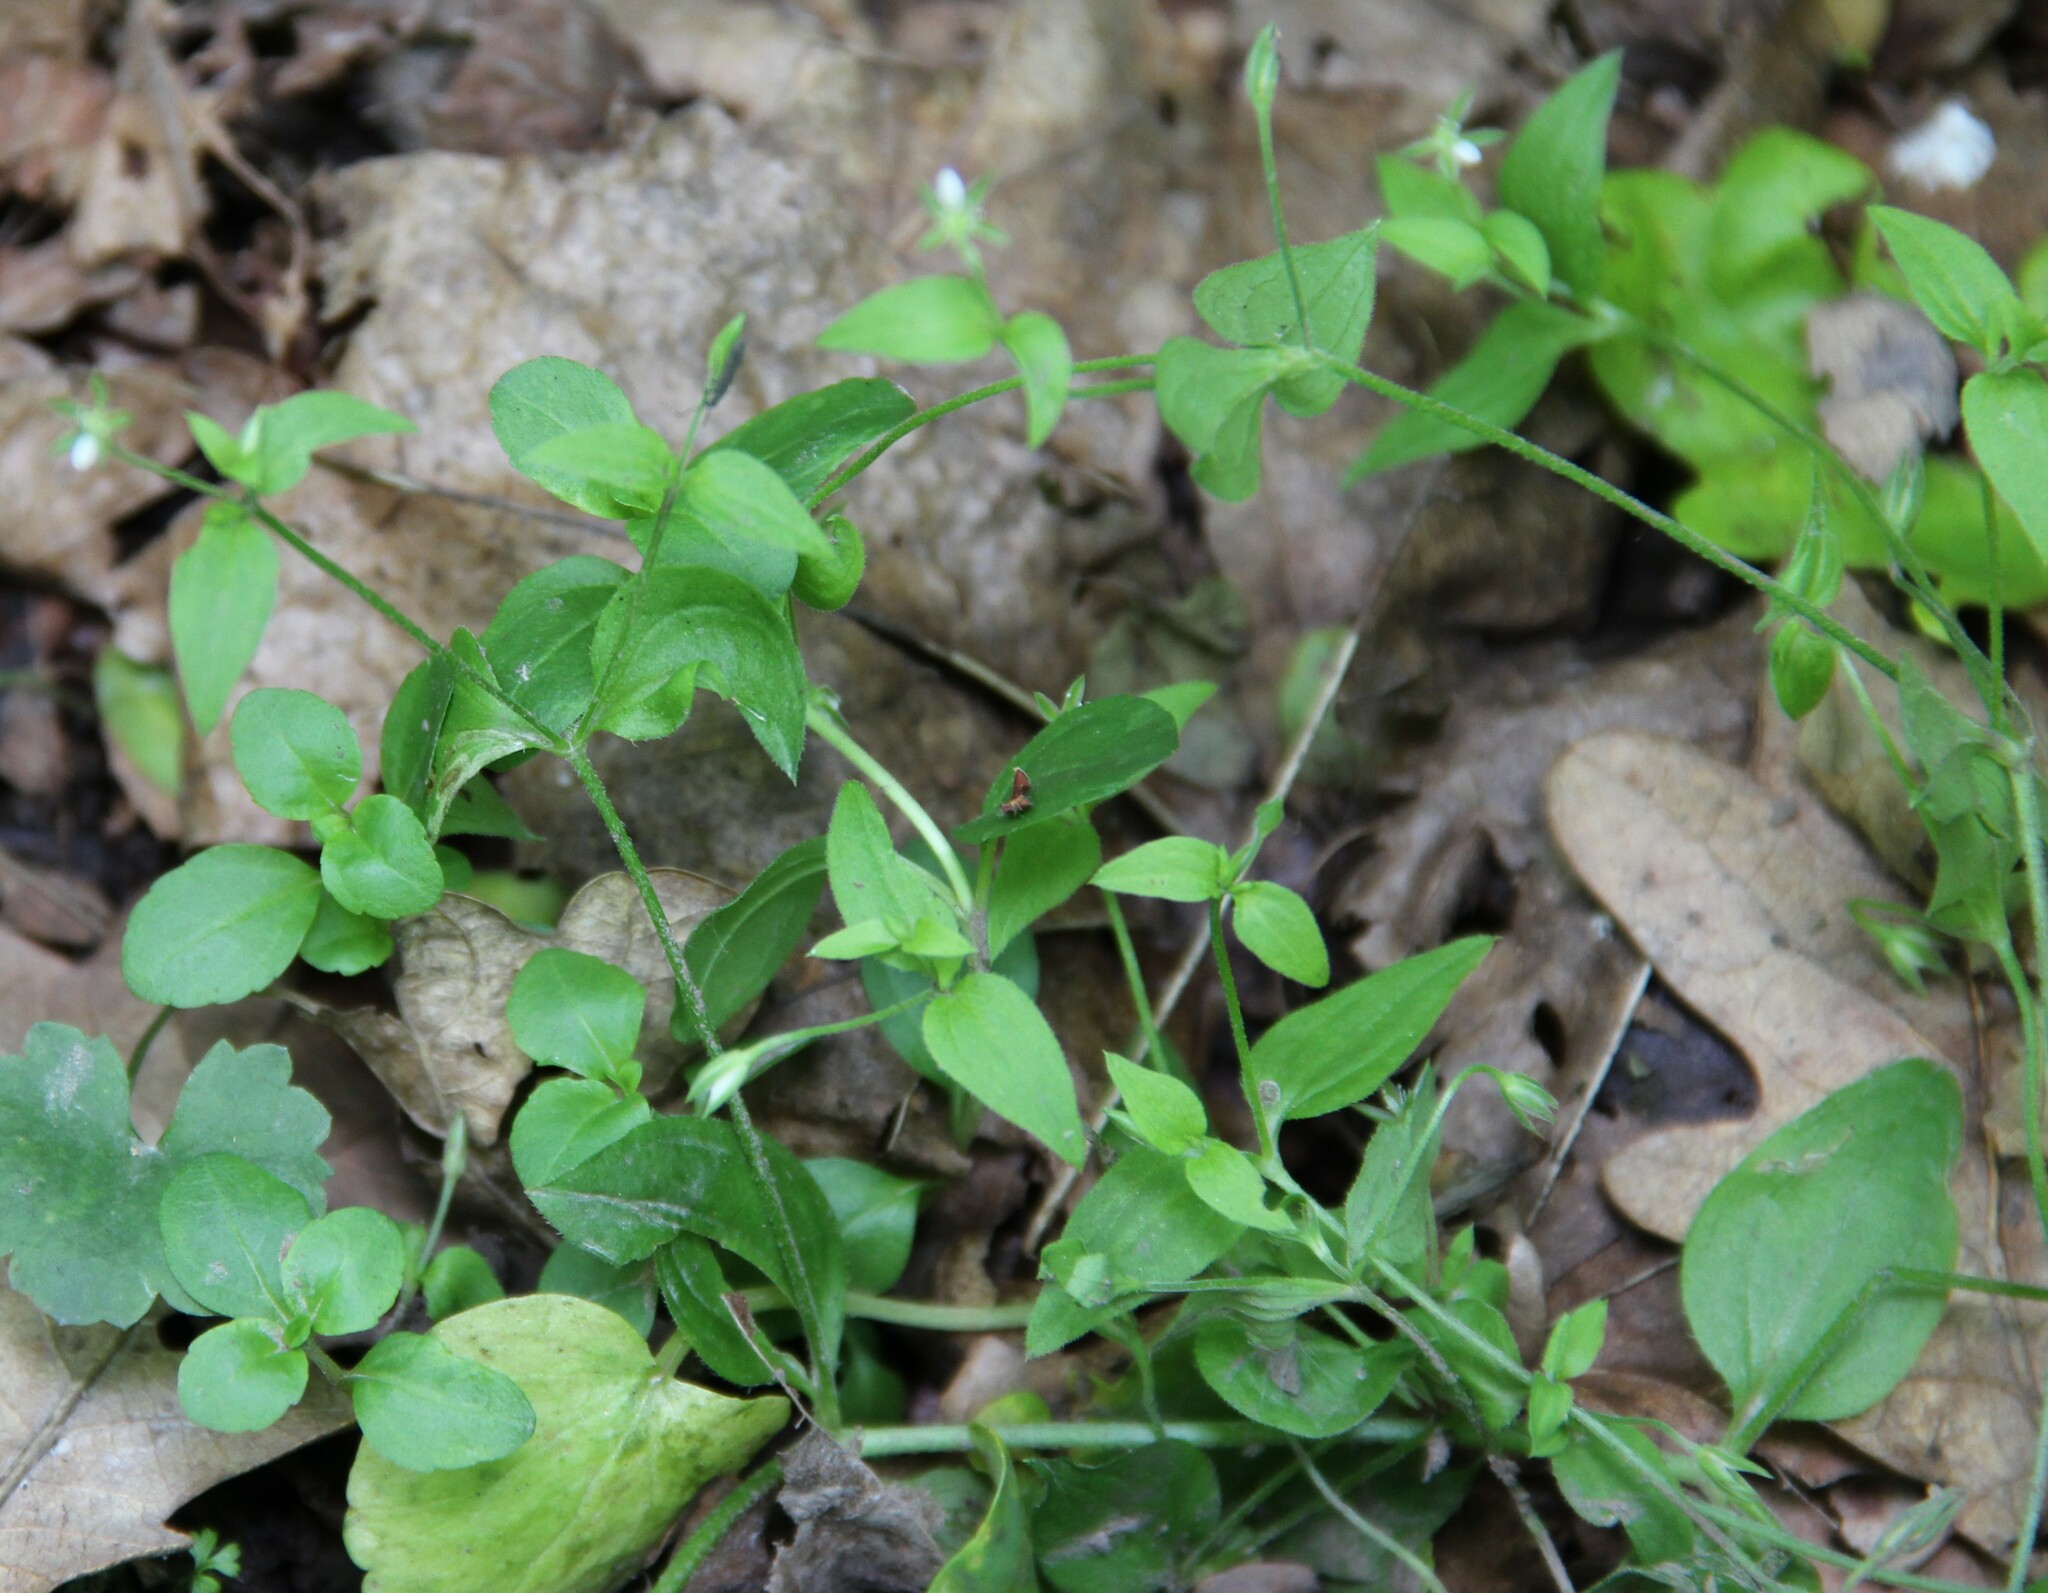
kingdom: Plantae
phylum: Tracheophyta
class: Magnoliopsida
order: Caryophyllales
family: Caryophyllaceae
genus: Moehringia
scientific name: Moehringia trinervia
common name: Three-nerved sandwort
